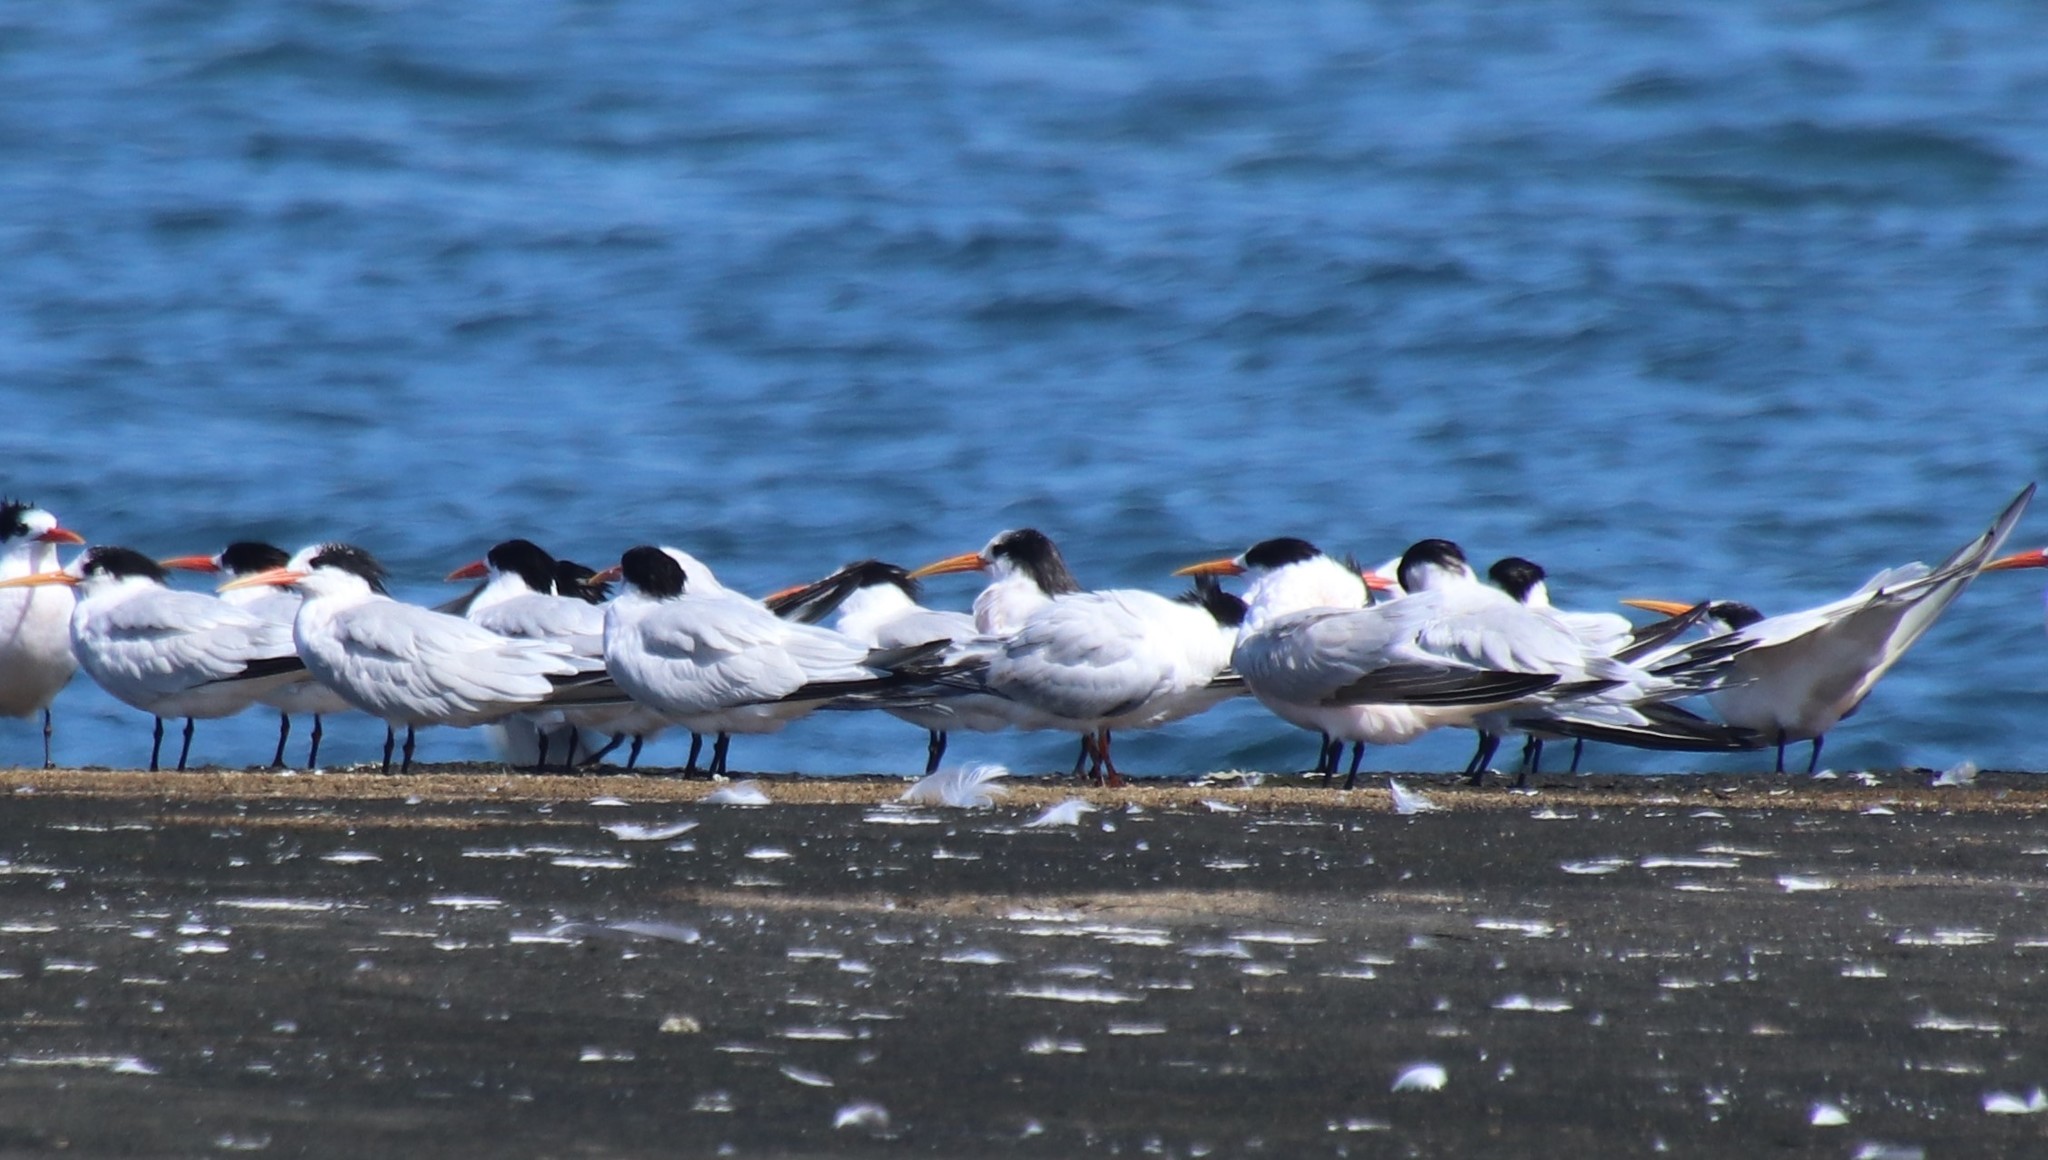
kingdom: Animalia
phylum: Chordata
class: Aves
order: Charadriiformes
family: Laridae
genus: Thalasseus
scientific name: Thalasseus elegans
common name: Elegant tern
